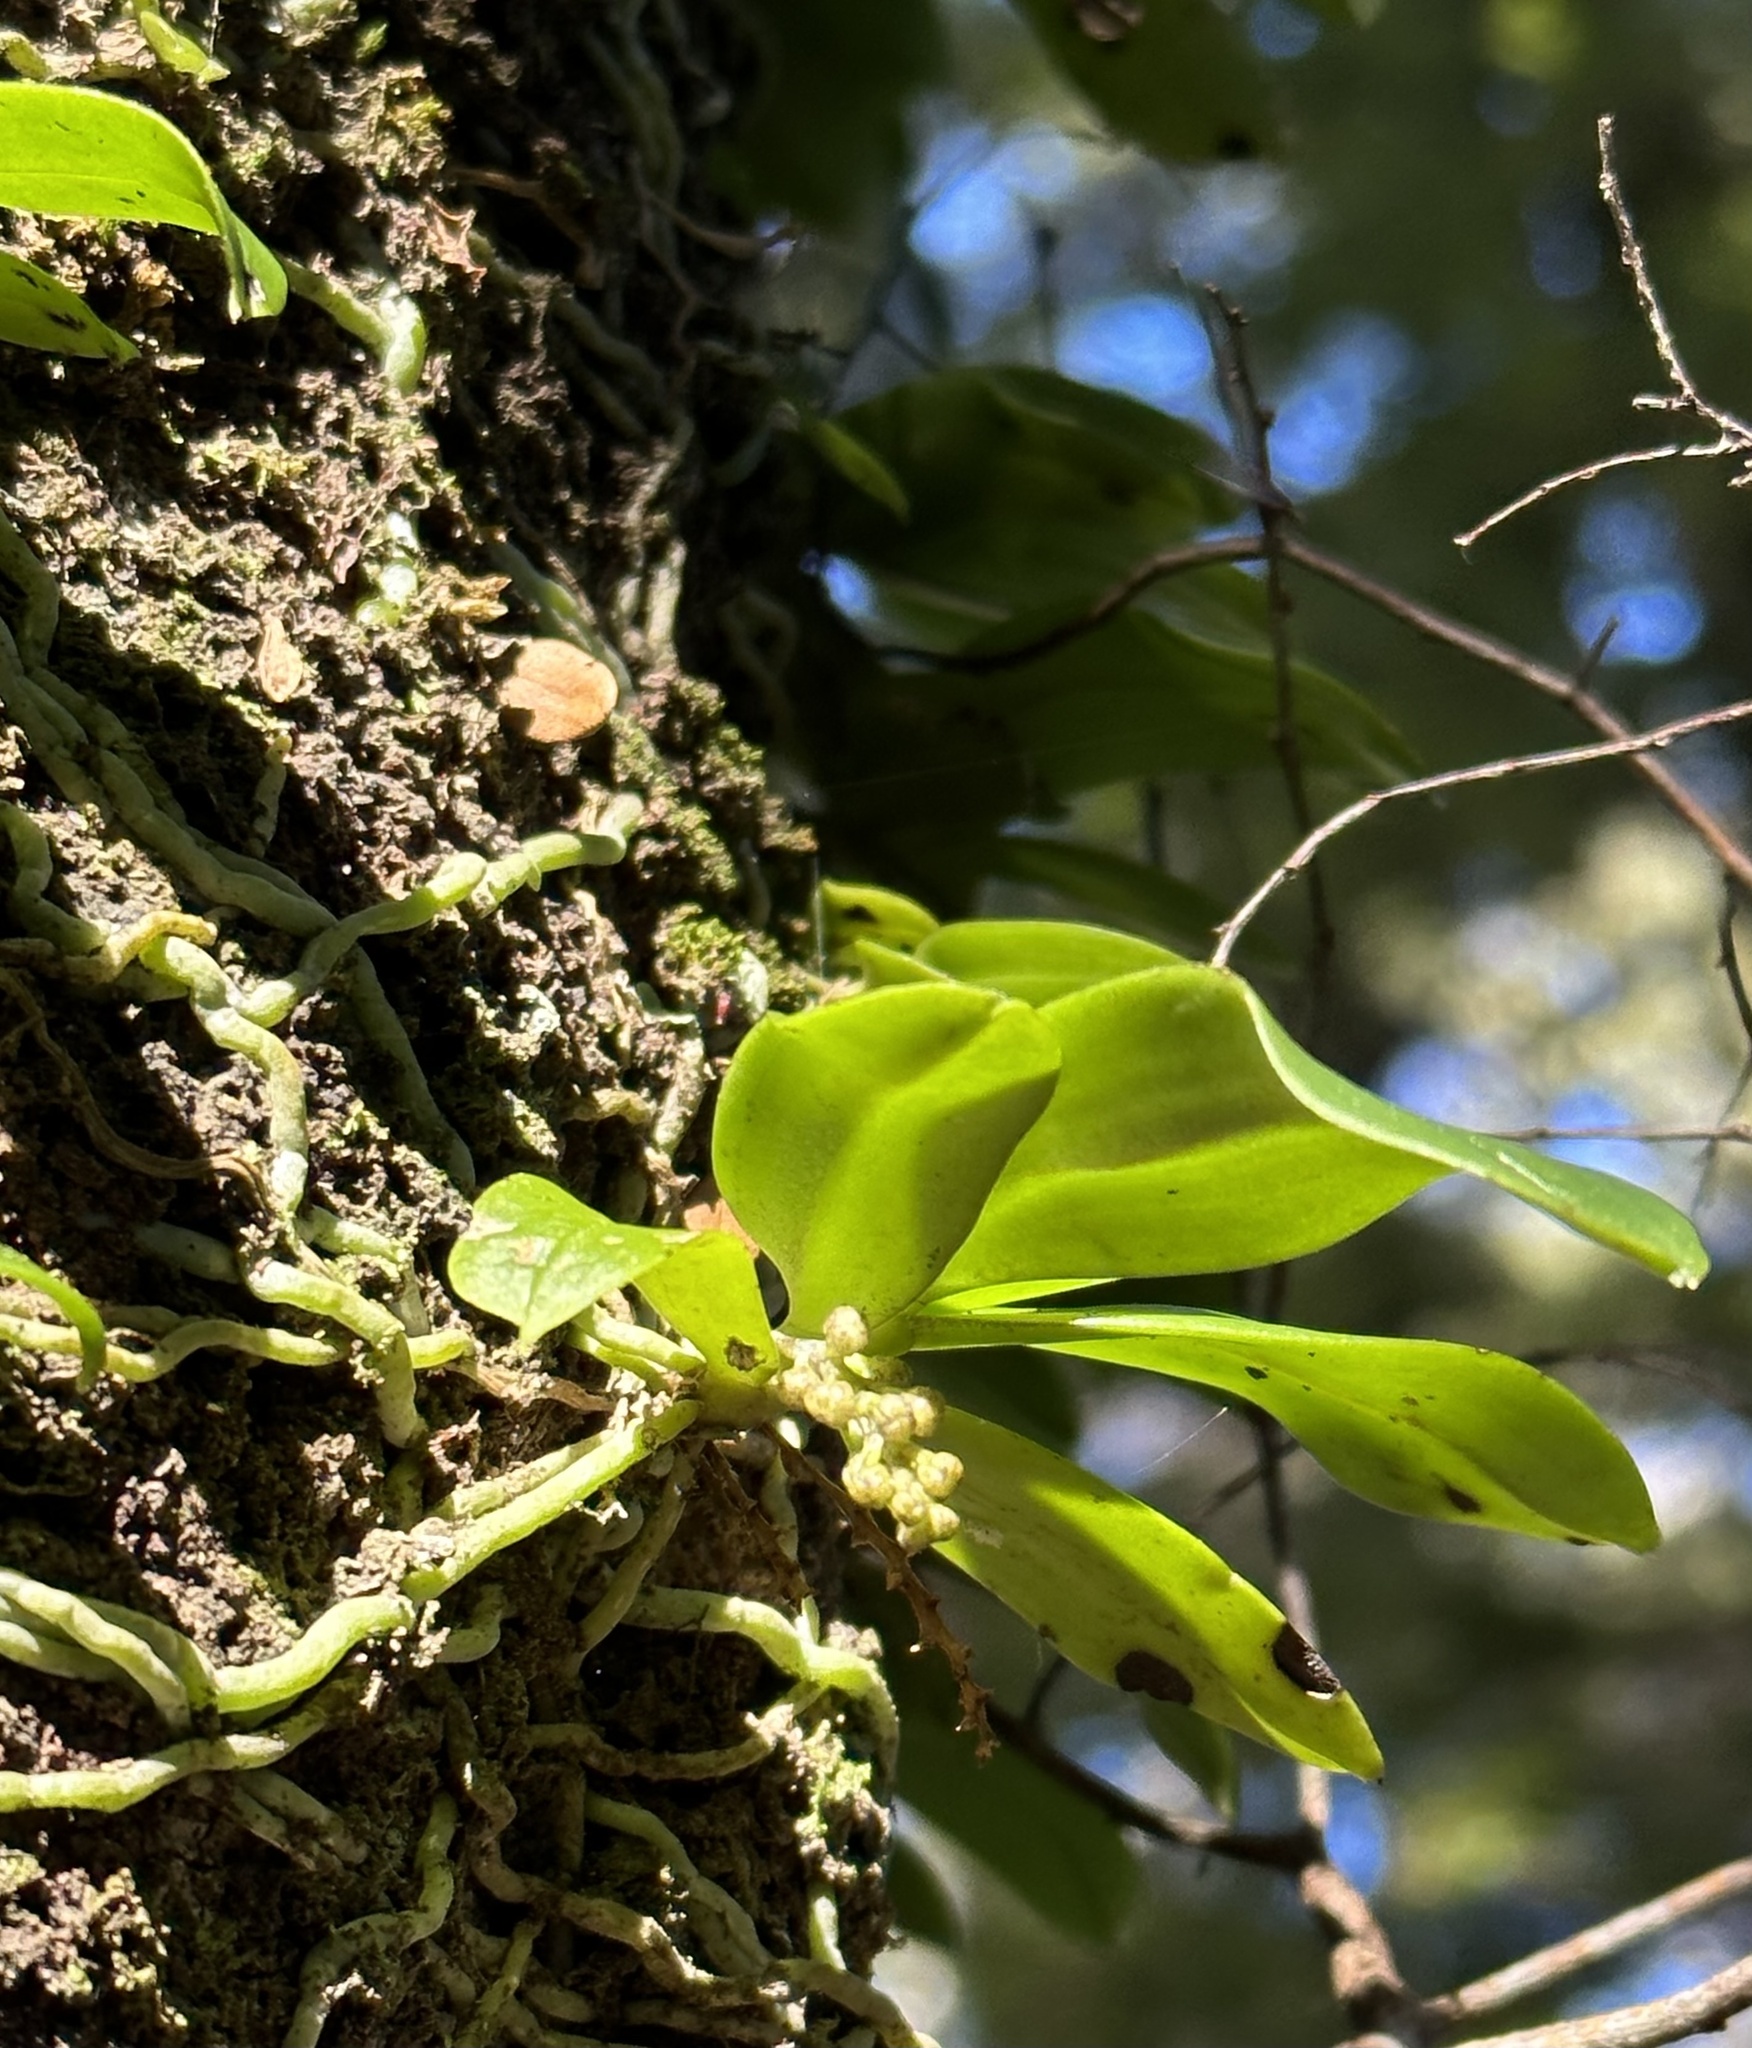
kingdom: Plantae
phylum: Tracheophyta
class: Liliopsida
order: Asparagales
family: Orchidaceae
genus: Drymoanthus
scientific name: Drymoanthus adversus
